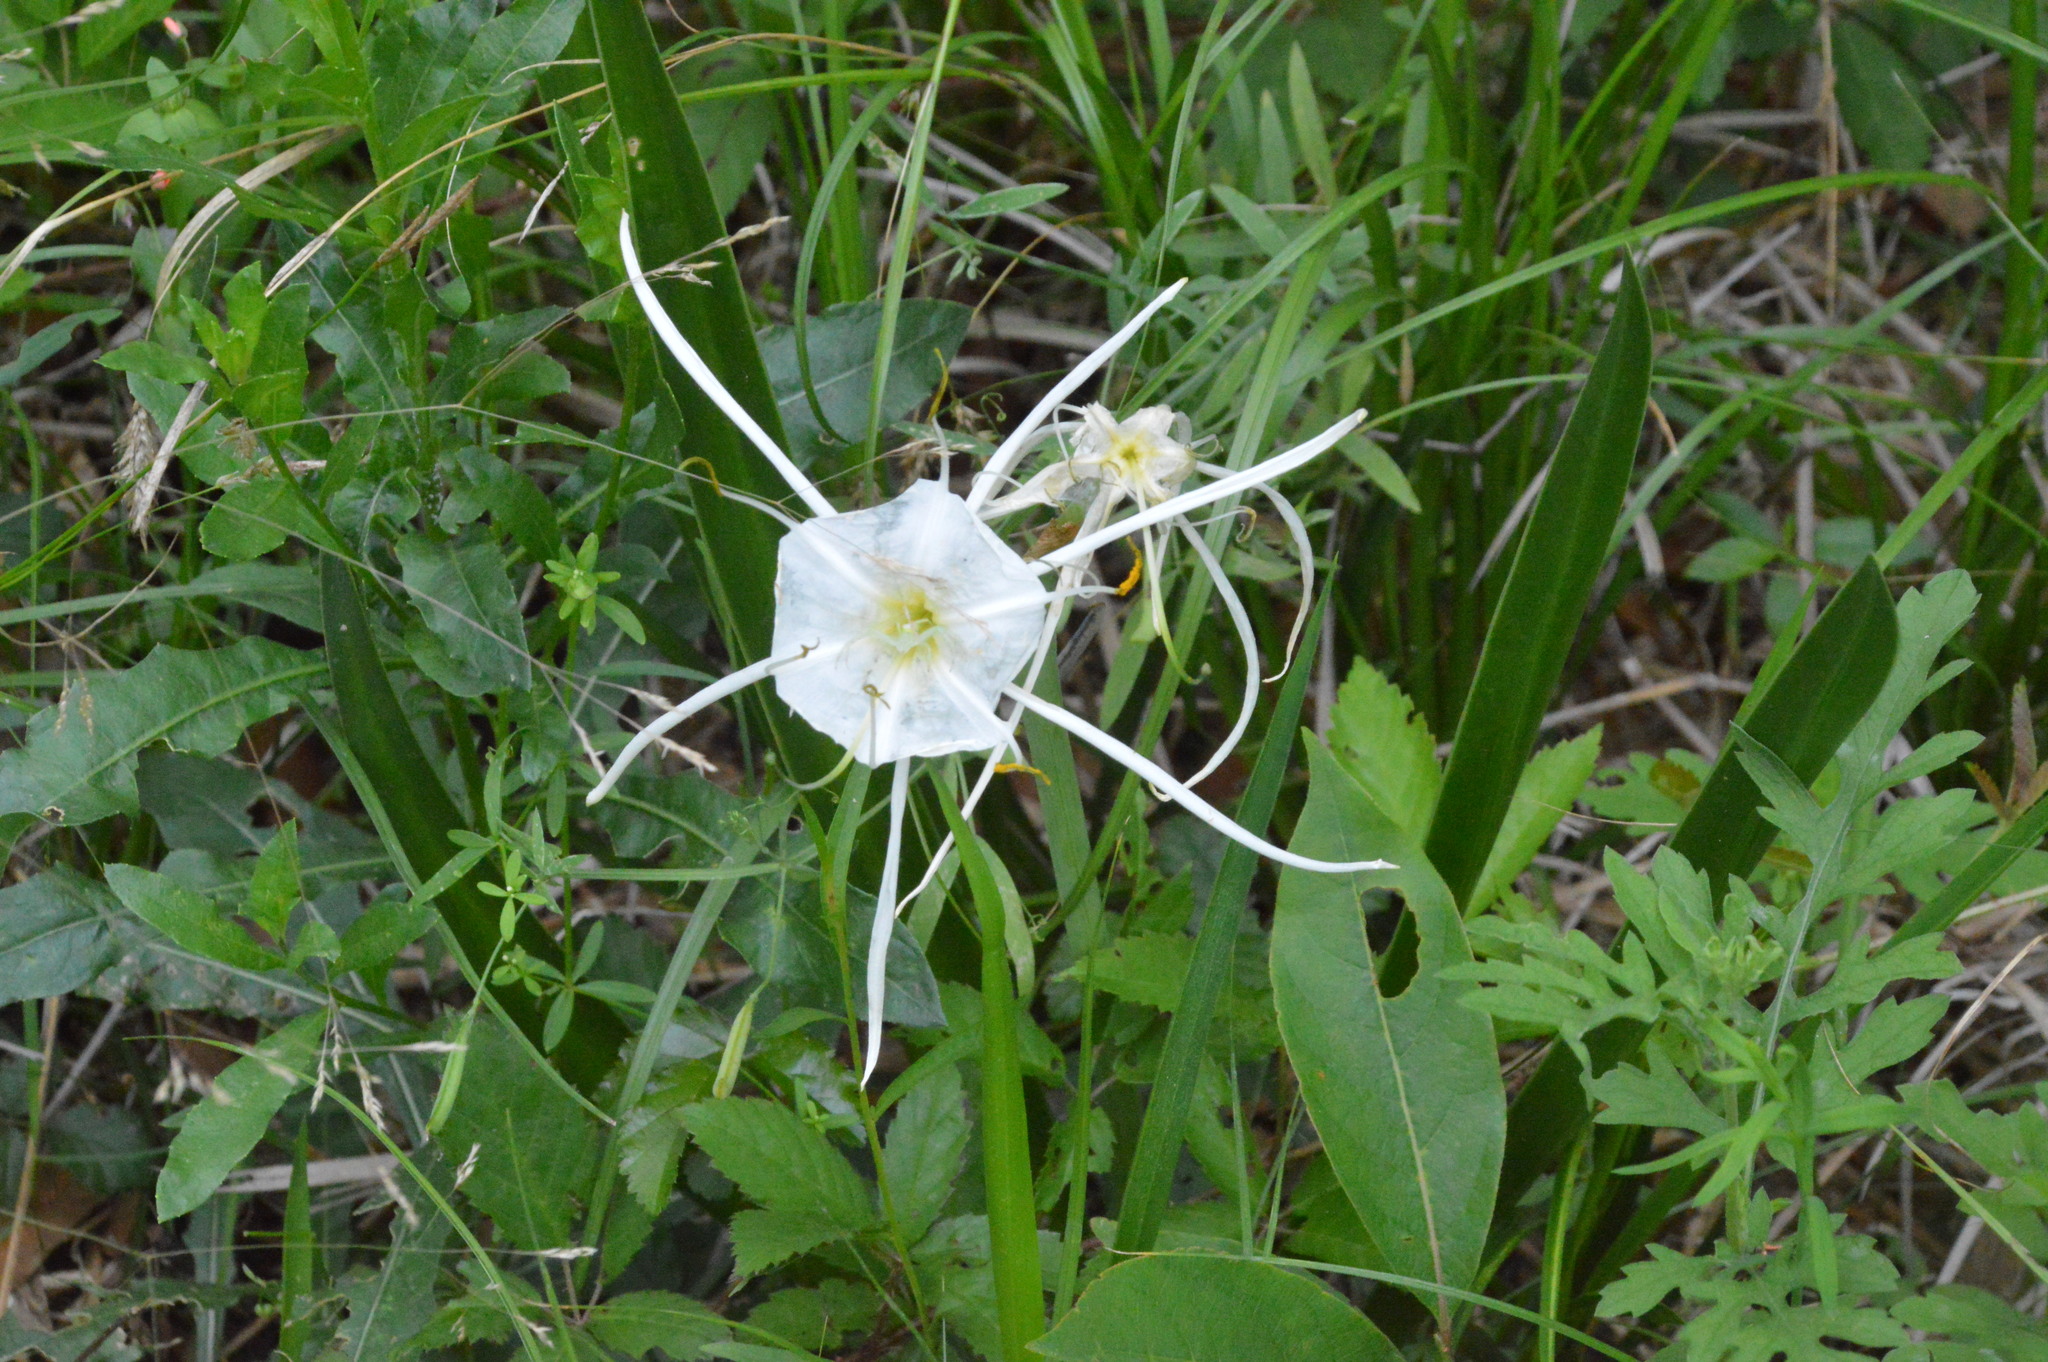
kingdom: Plantae
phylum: Tracheophyta
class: Liliopsida
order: Asparagales
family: Amaryllidaceae
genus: Hymenocallis
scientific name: Hymenocallis liriosme
